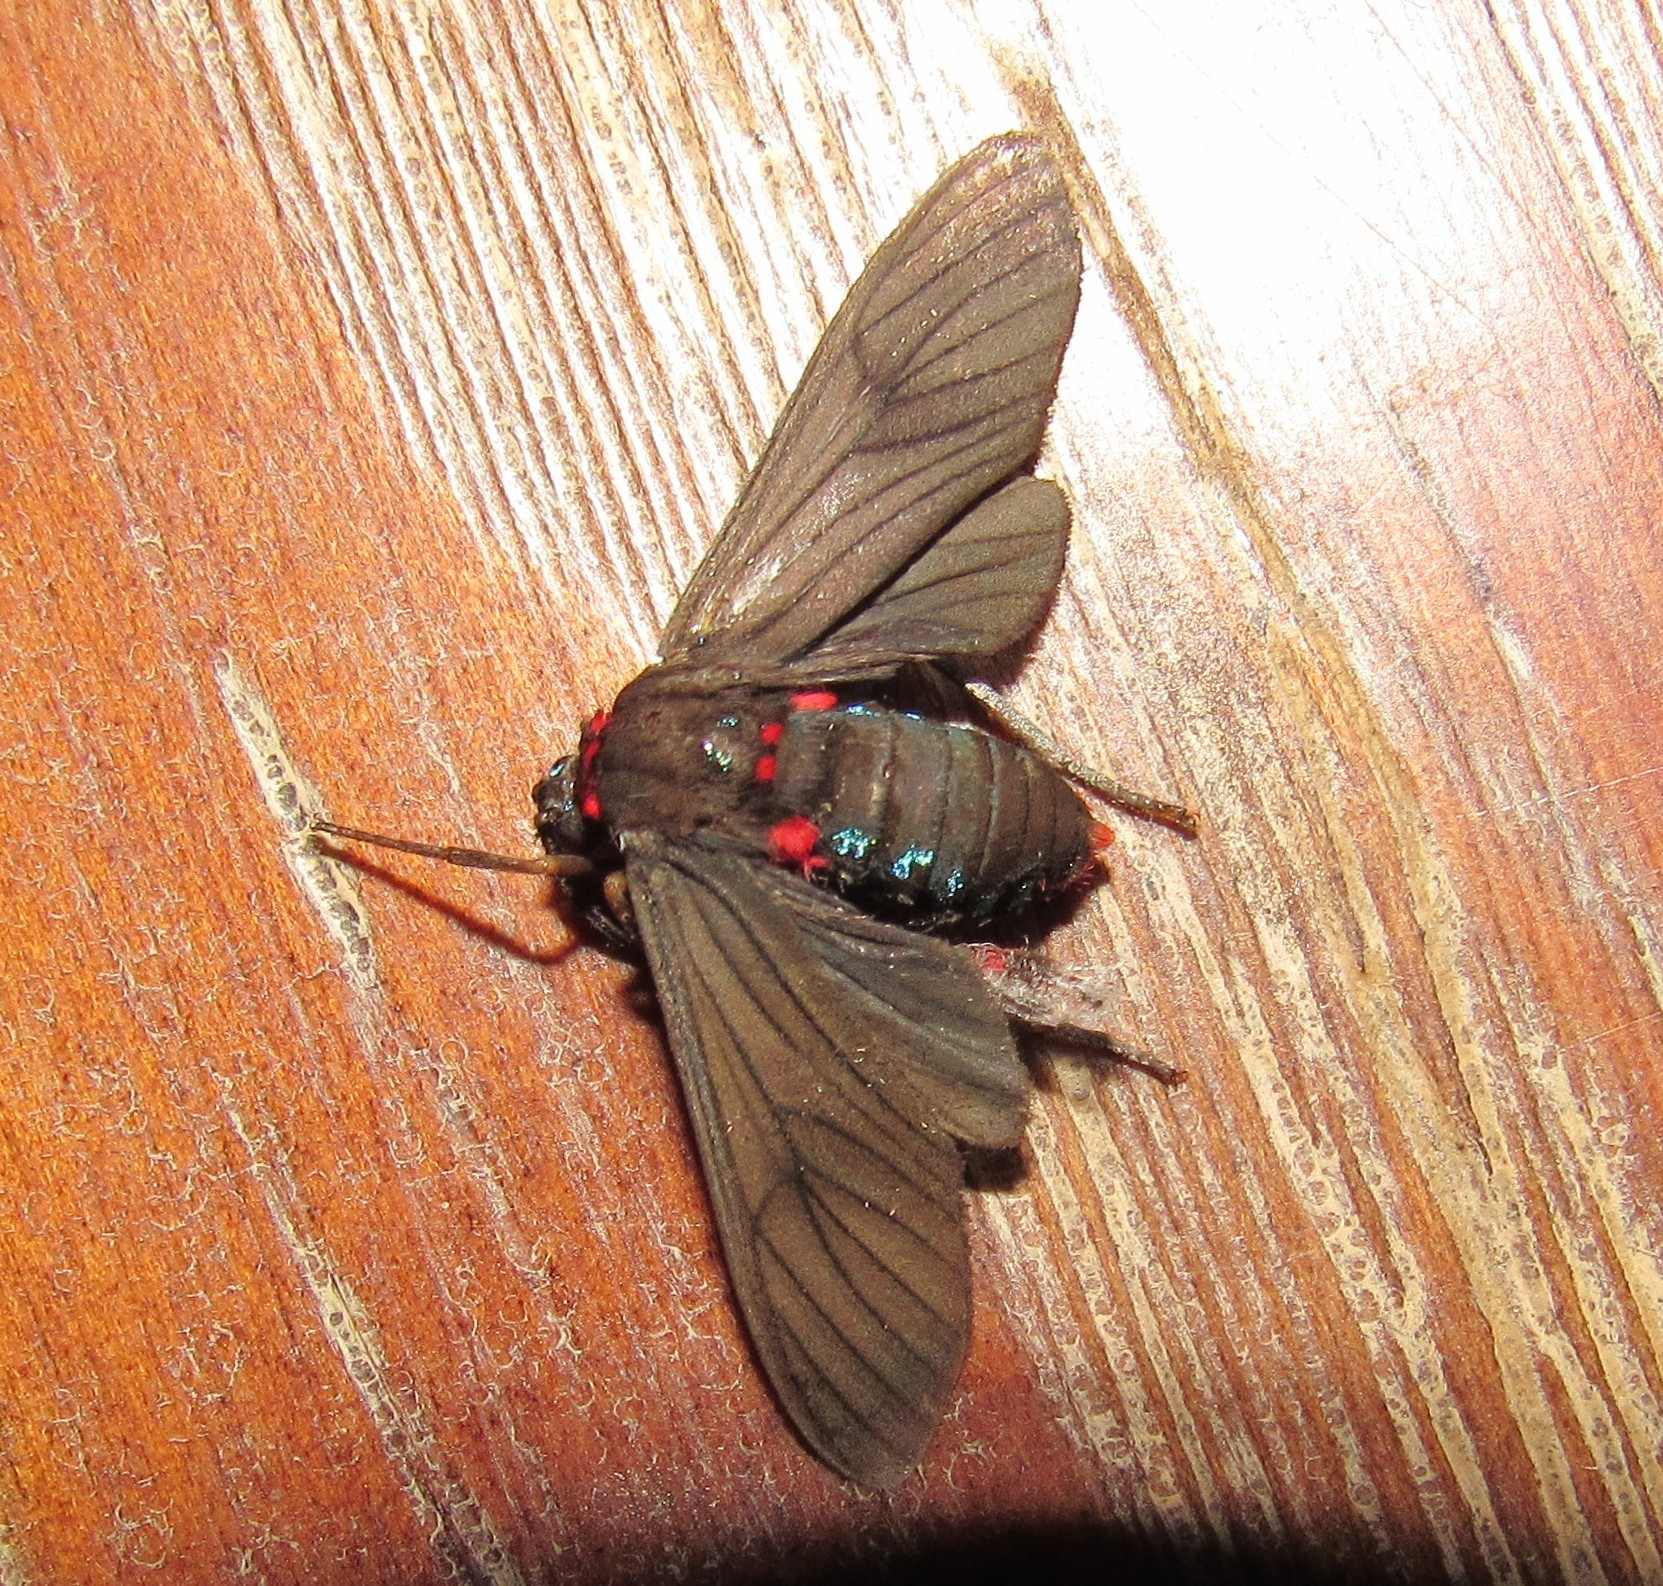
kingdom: Animalia
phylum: Arthropoda
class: Insecta
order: Lepidoptera
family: Erebidae
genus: Saurita
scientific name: Saurita cassandra
